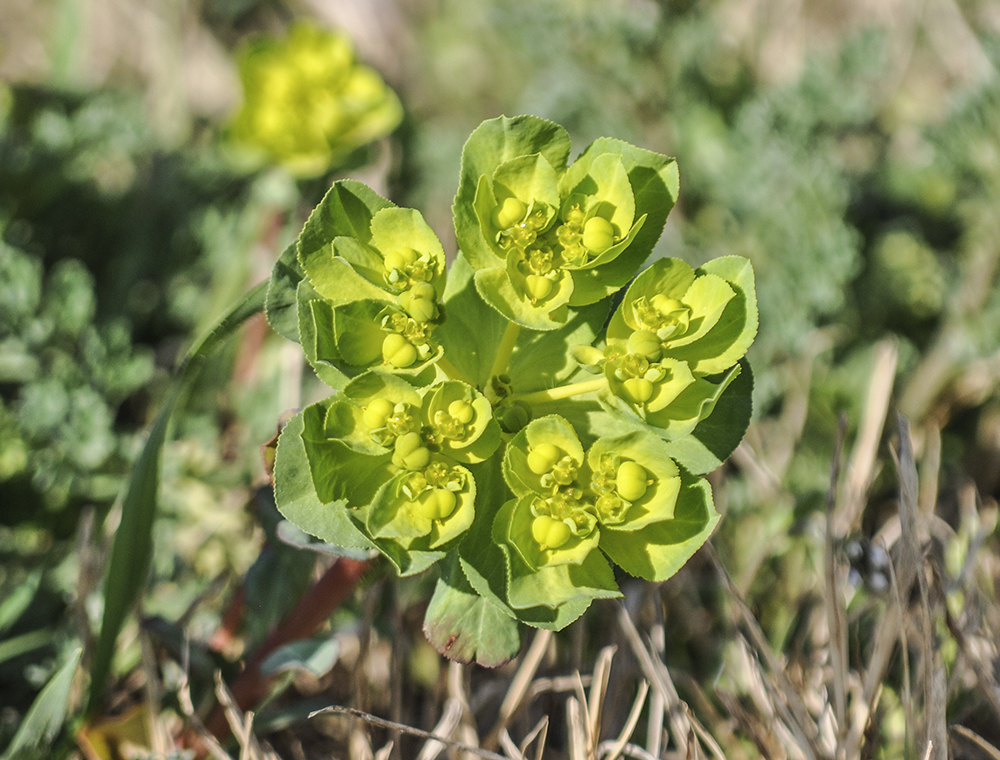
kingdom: Plantae
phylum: Tracheophyta
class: Magnoliopsida
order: Malpighiales
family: Euphorbiaceae
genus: Euphorbia
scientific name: Euphorbia helioscopia
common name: Sun spurge
